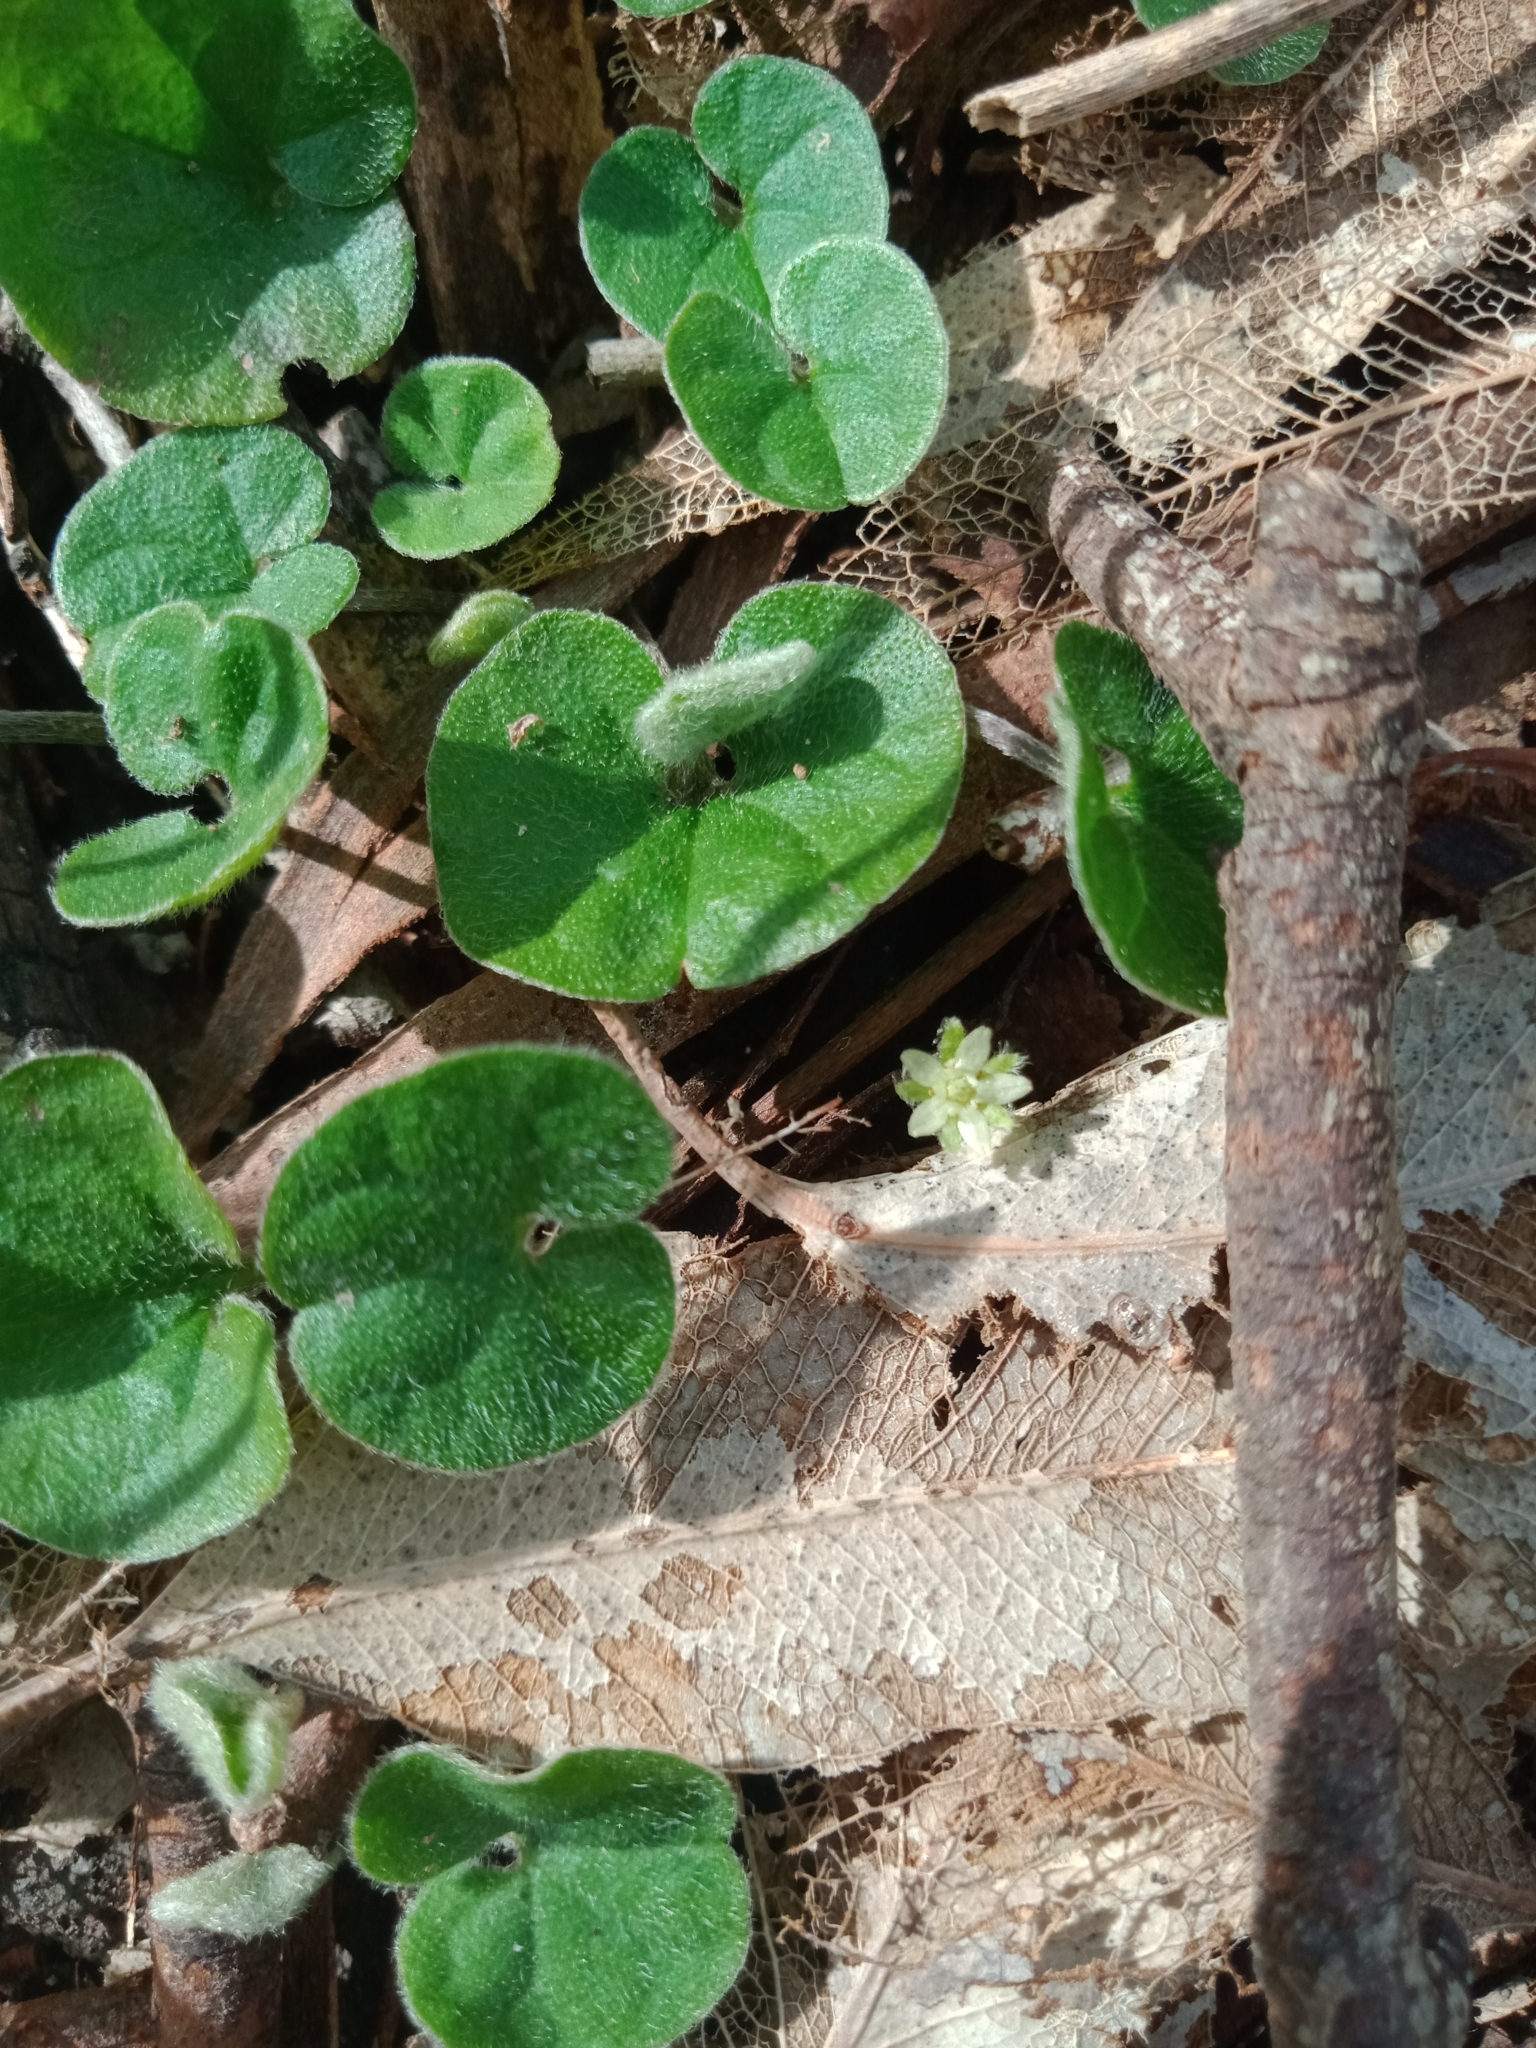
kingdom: Plantae
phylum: Tracheophyta
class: Magnoliopsida
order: Solanales
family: Convolvulaceae
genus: Dichondra
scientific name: Dichondra repens
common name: Kidneyweed
